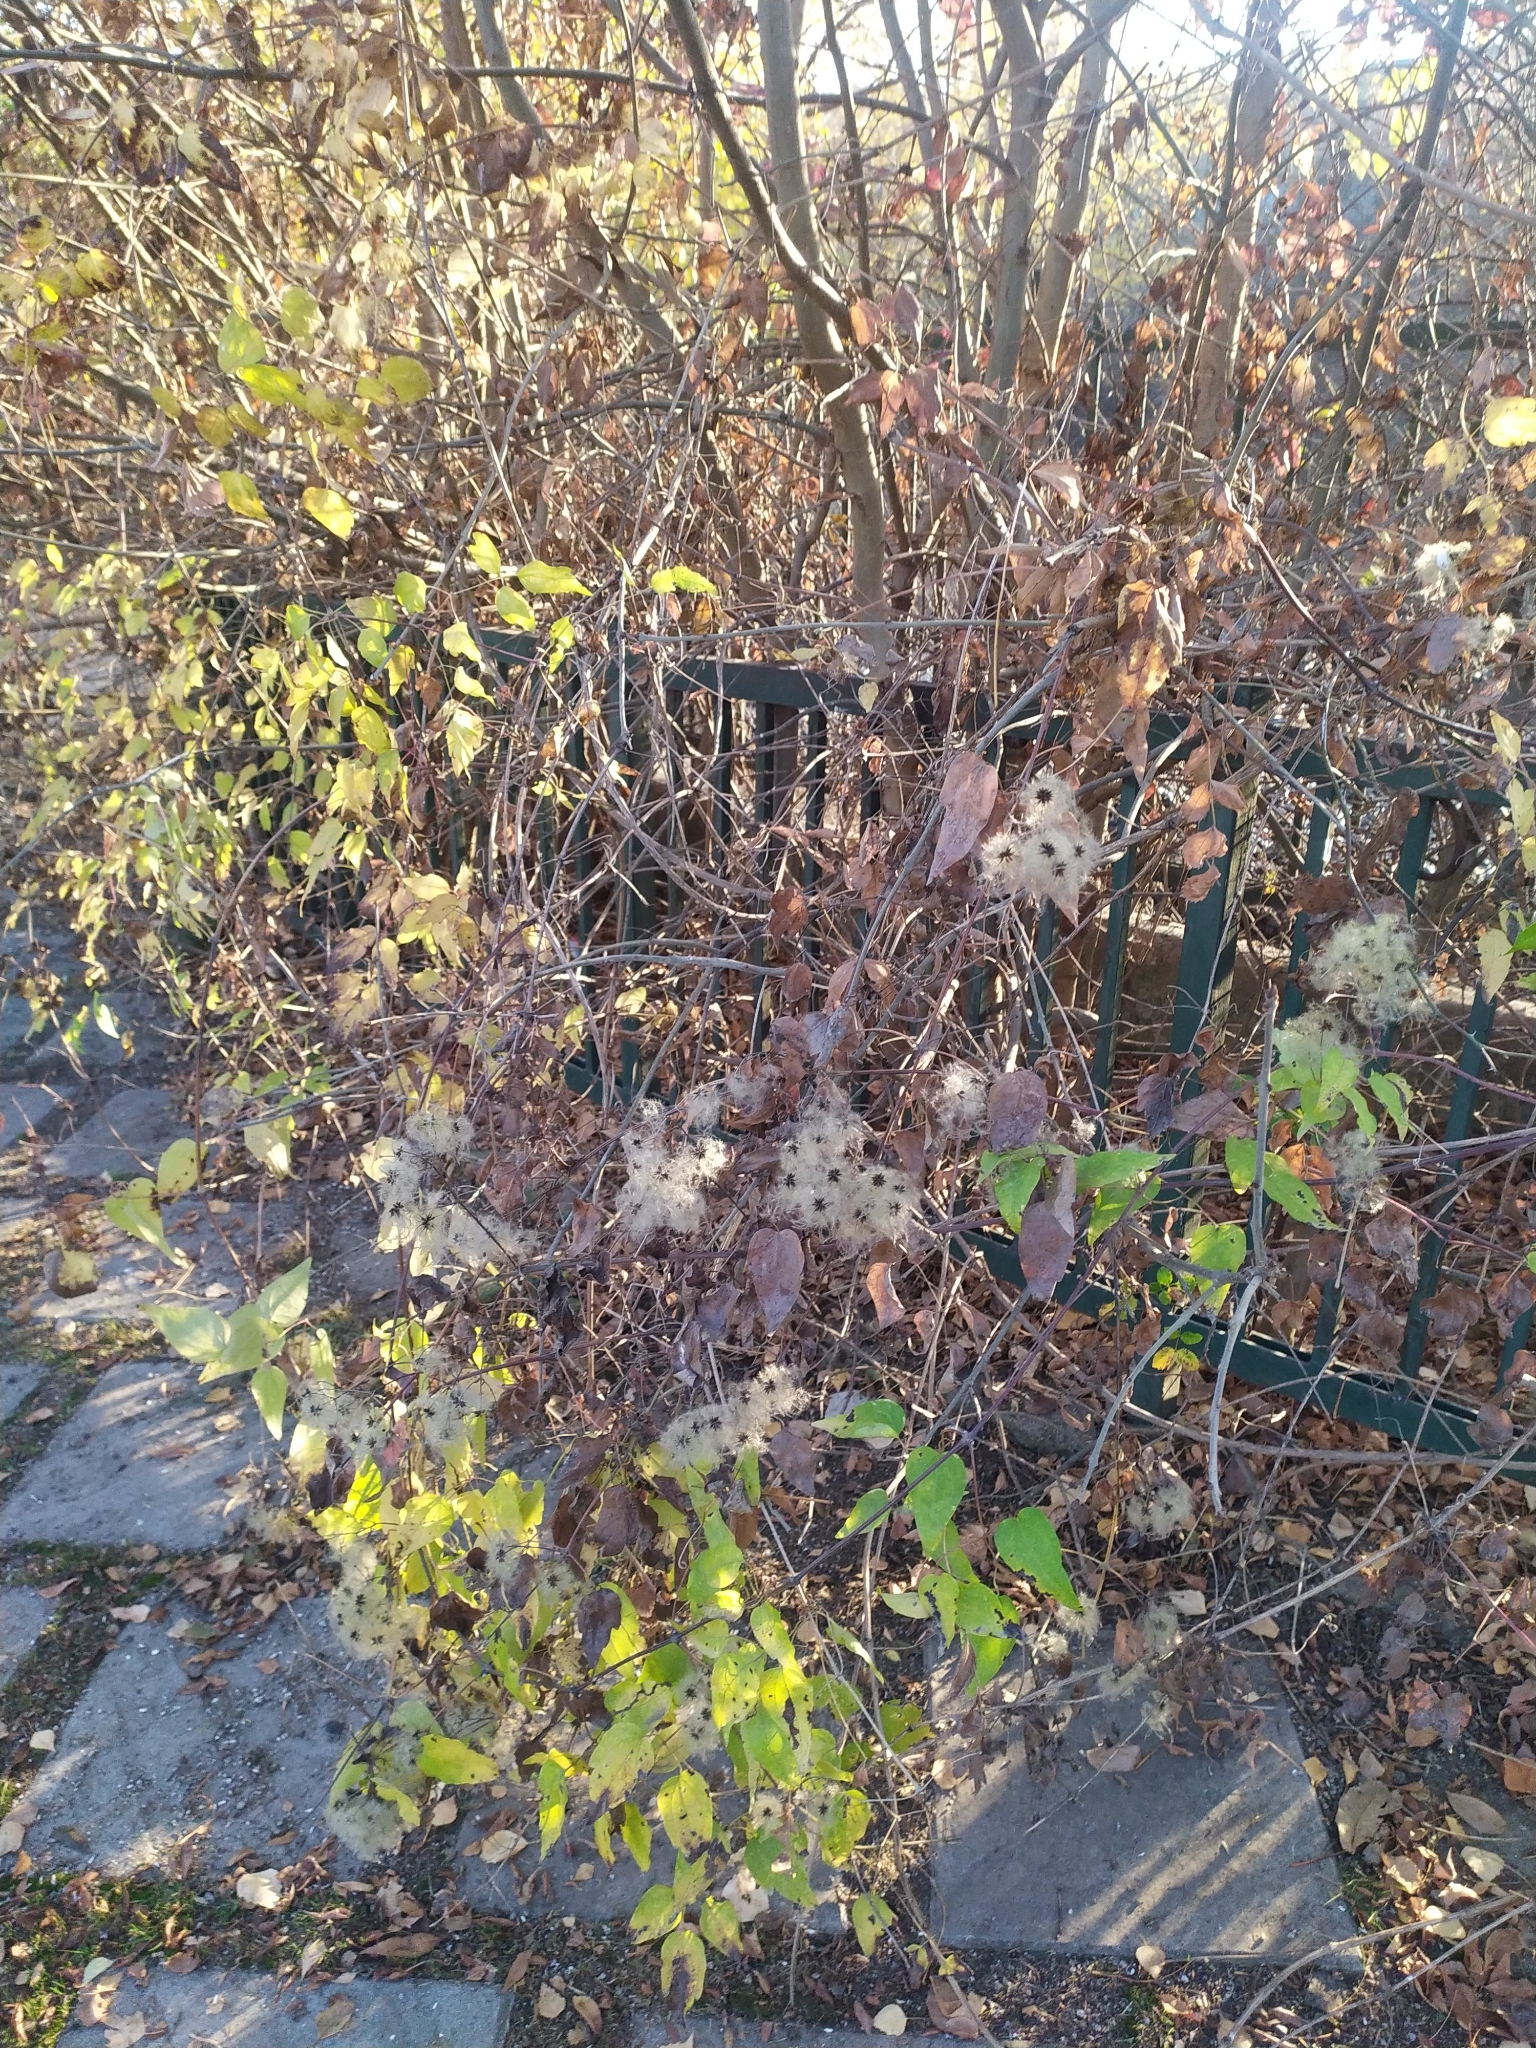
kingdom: Plantae
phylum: Tracheophyta
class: Magnoliopsida
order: Ranunculales
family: Ranunculaceae
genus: Clematis
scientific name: Clematis vitalba
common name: Evergreen clematis
